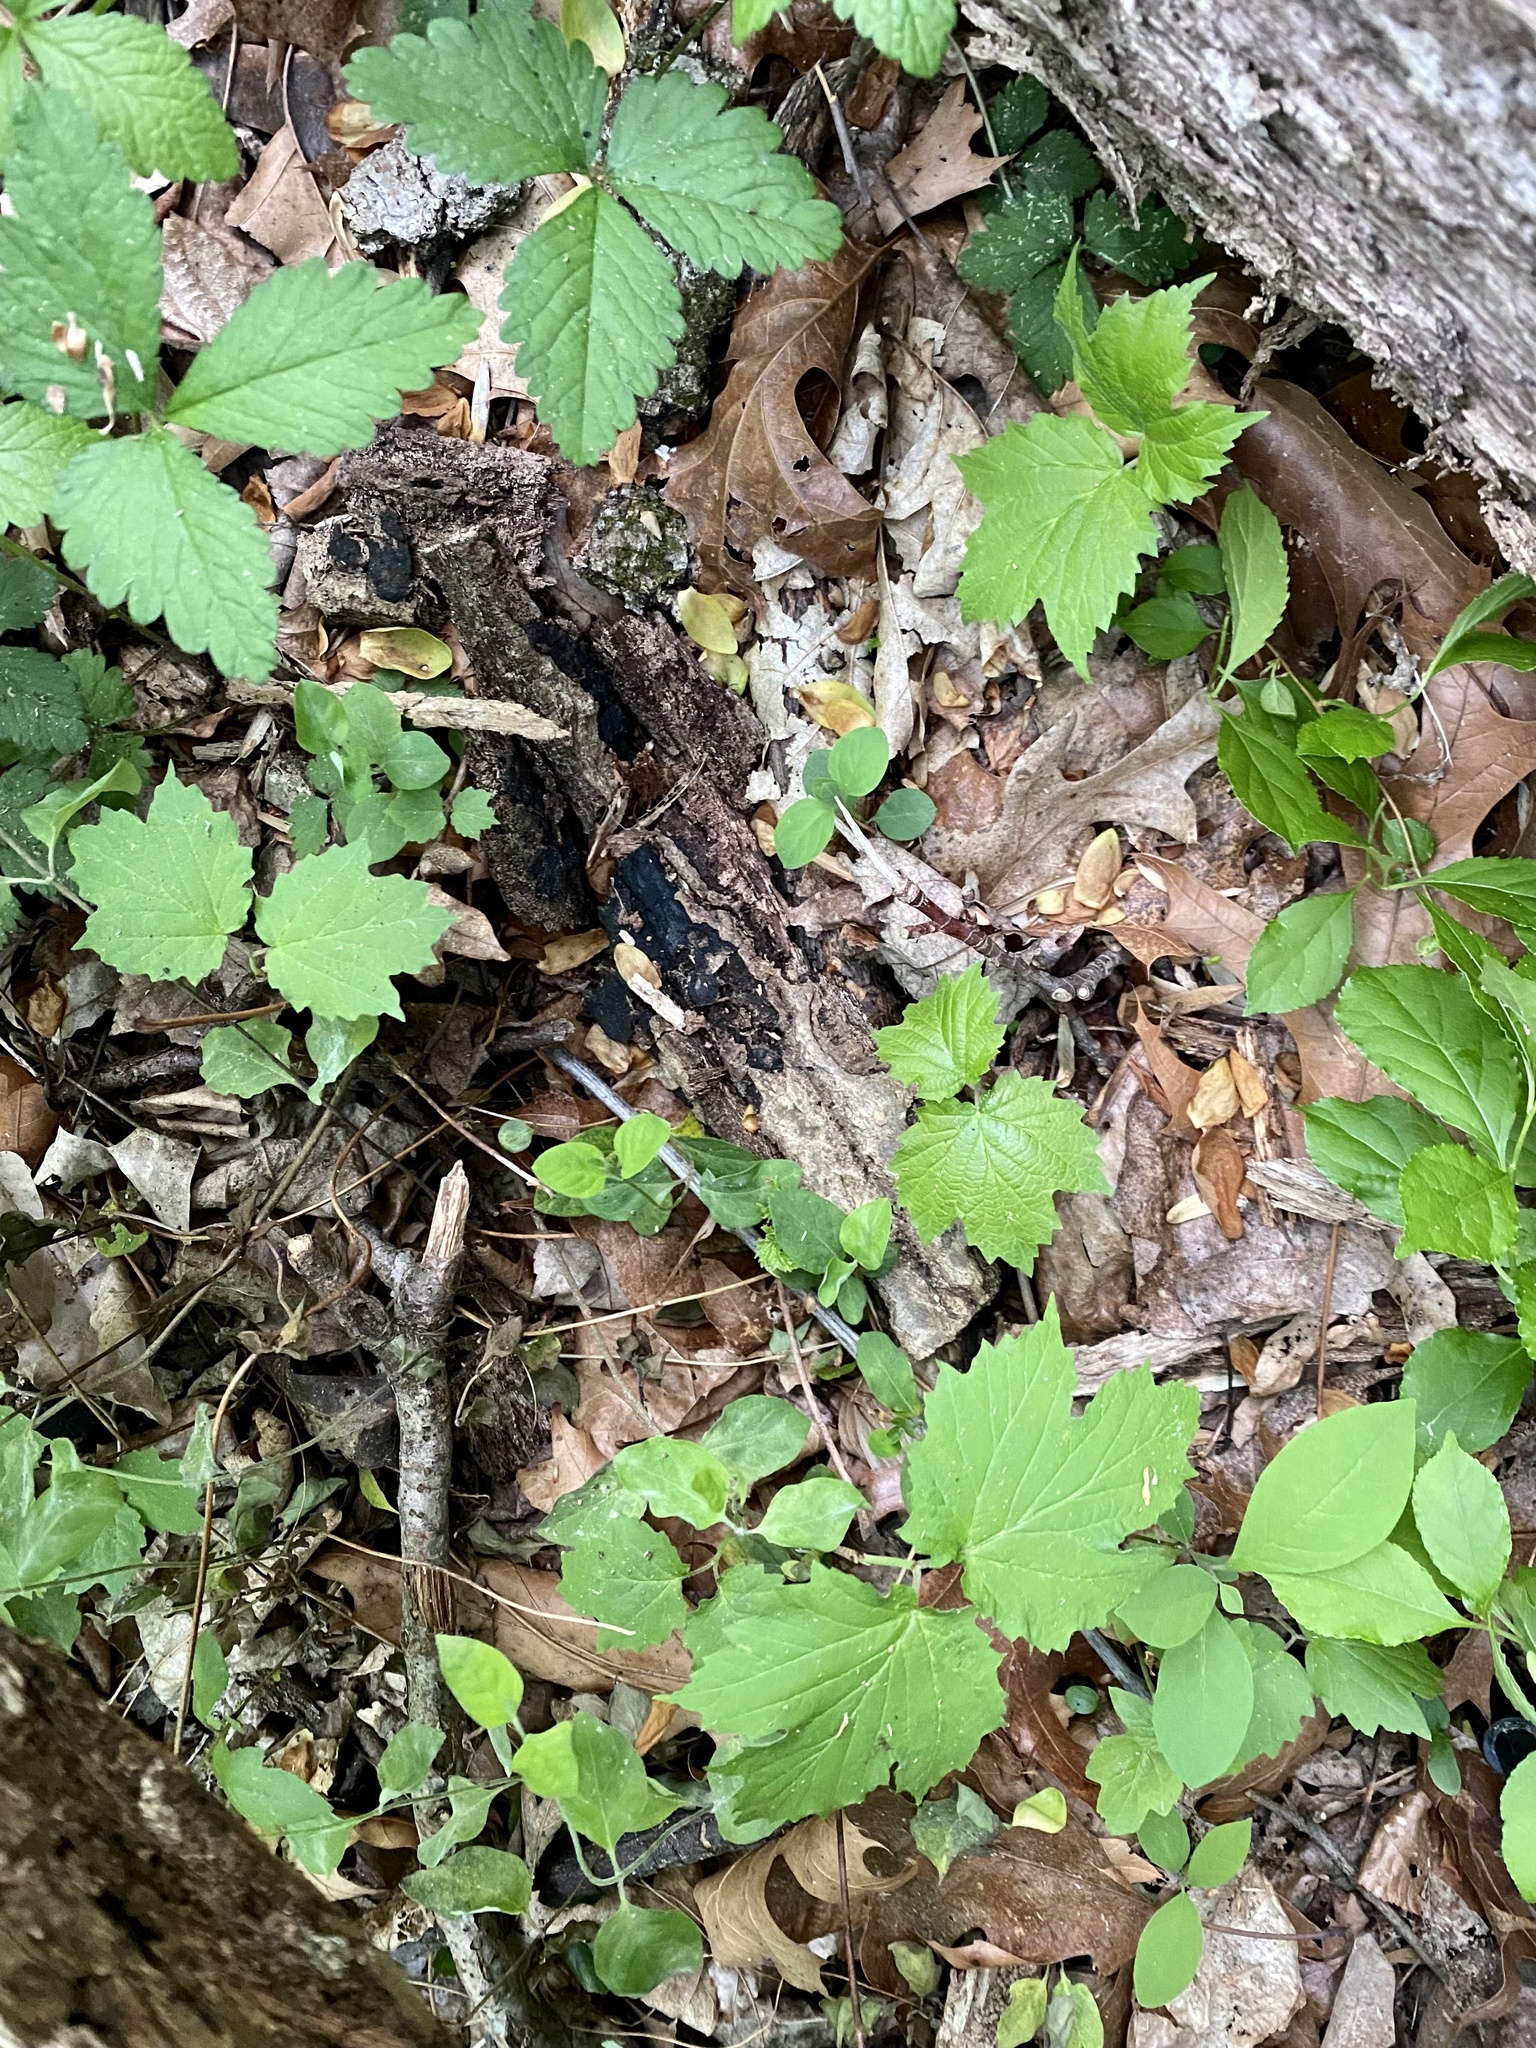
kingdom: Plantae
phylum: Tracheophyta
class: Magnoliopsida
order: Dipsacales
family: Viburnaceae
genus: Viburnum
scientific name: Viburnum acerifolium
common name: Dockmackie
